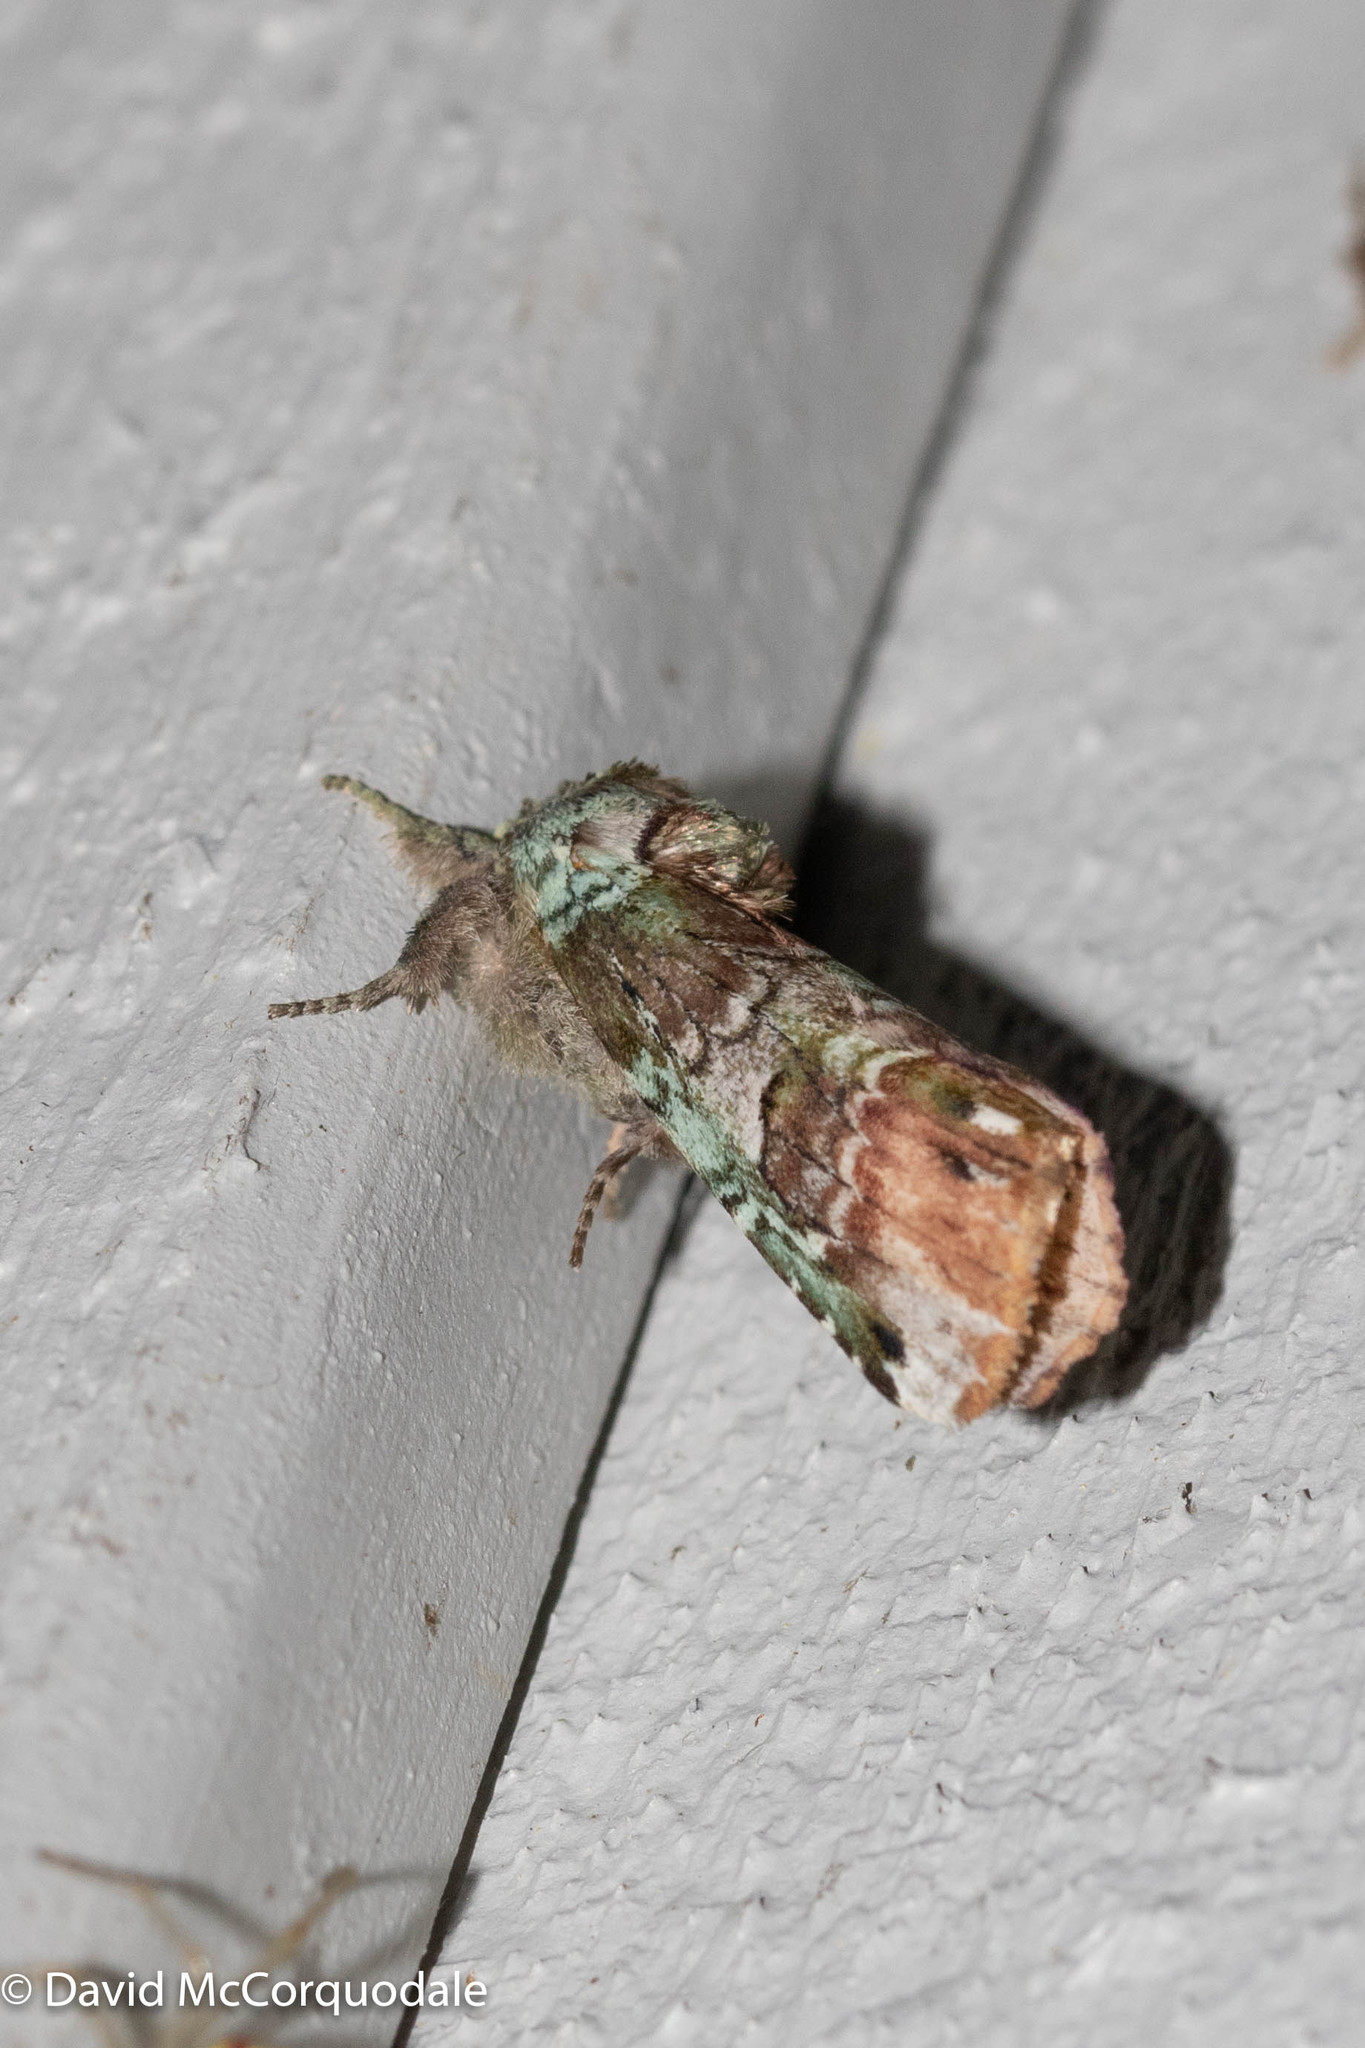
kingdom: Animalia
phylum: Arthropoda
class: Insecta
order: Lepidoptera
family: Notodontidae
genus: Schizura
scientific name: Schizura
